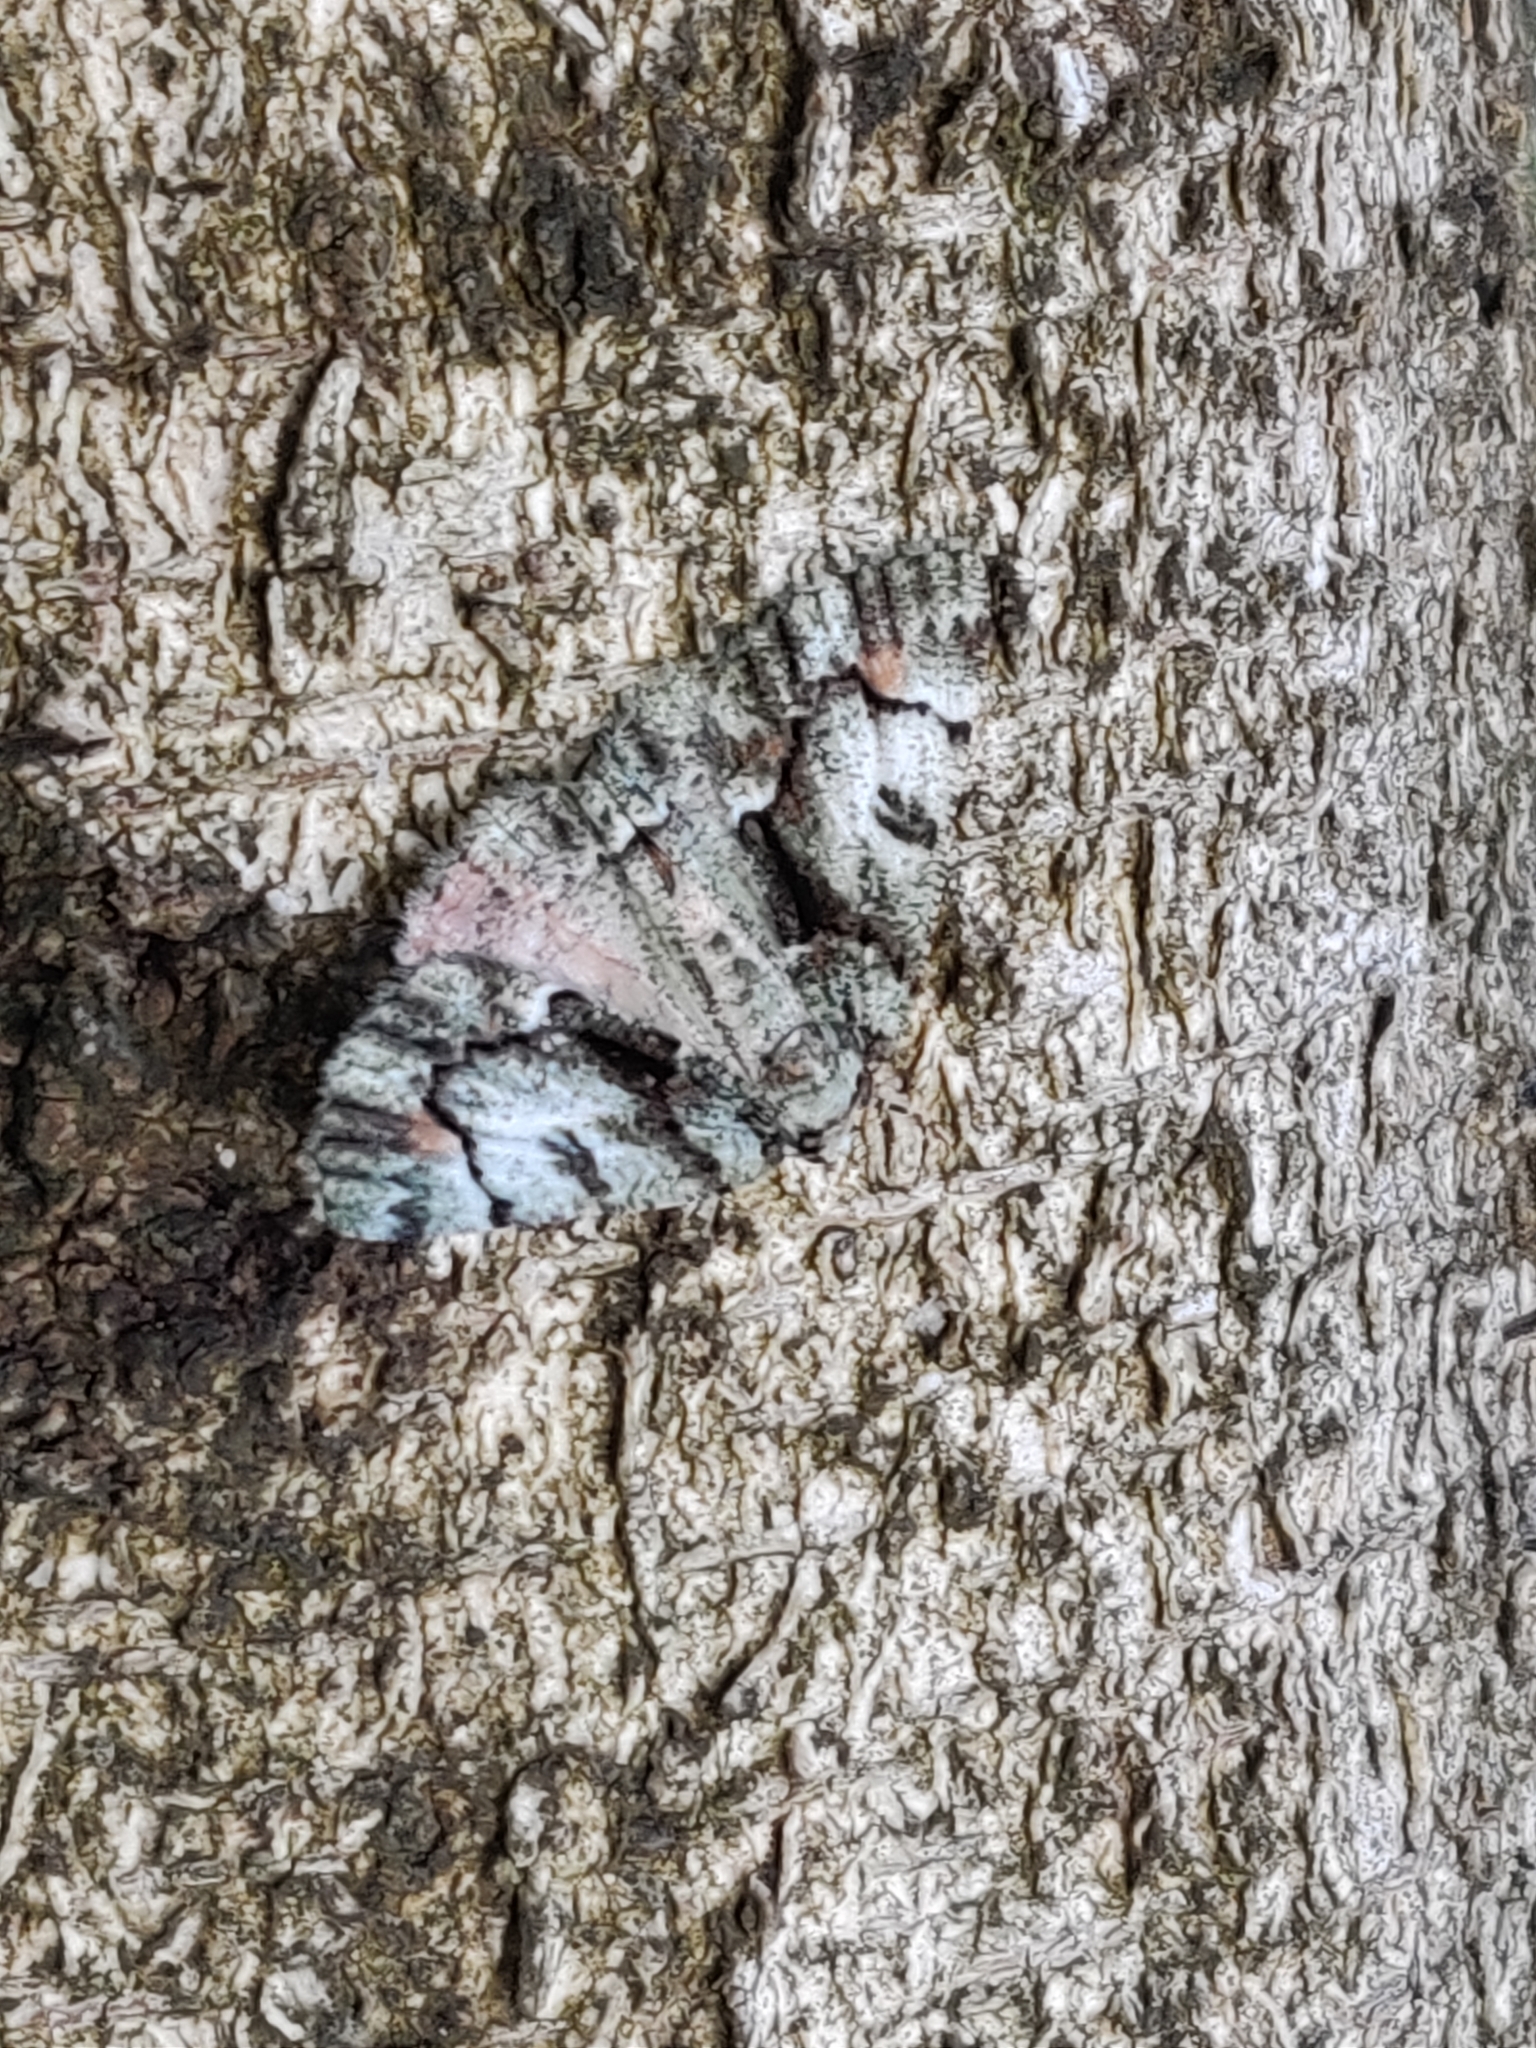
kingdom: Animalia
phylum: Arthropoda
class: Insecta
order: Lepidoptera
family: Geometridae
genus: Aeolochroma
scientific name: Aeolochroma metarhodata
